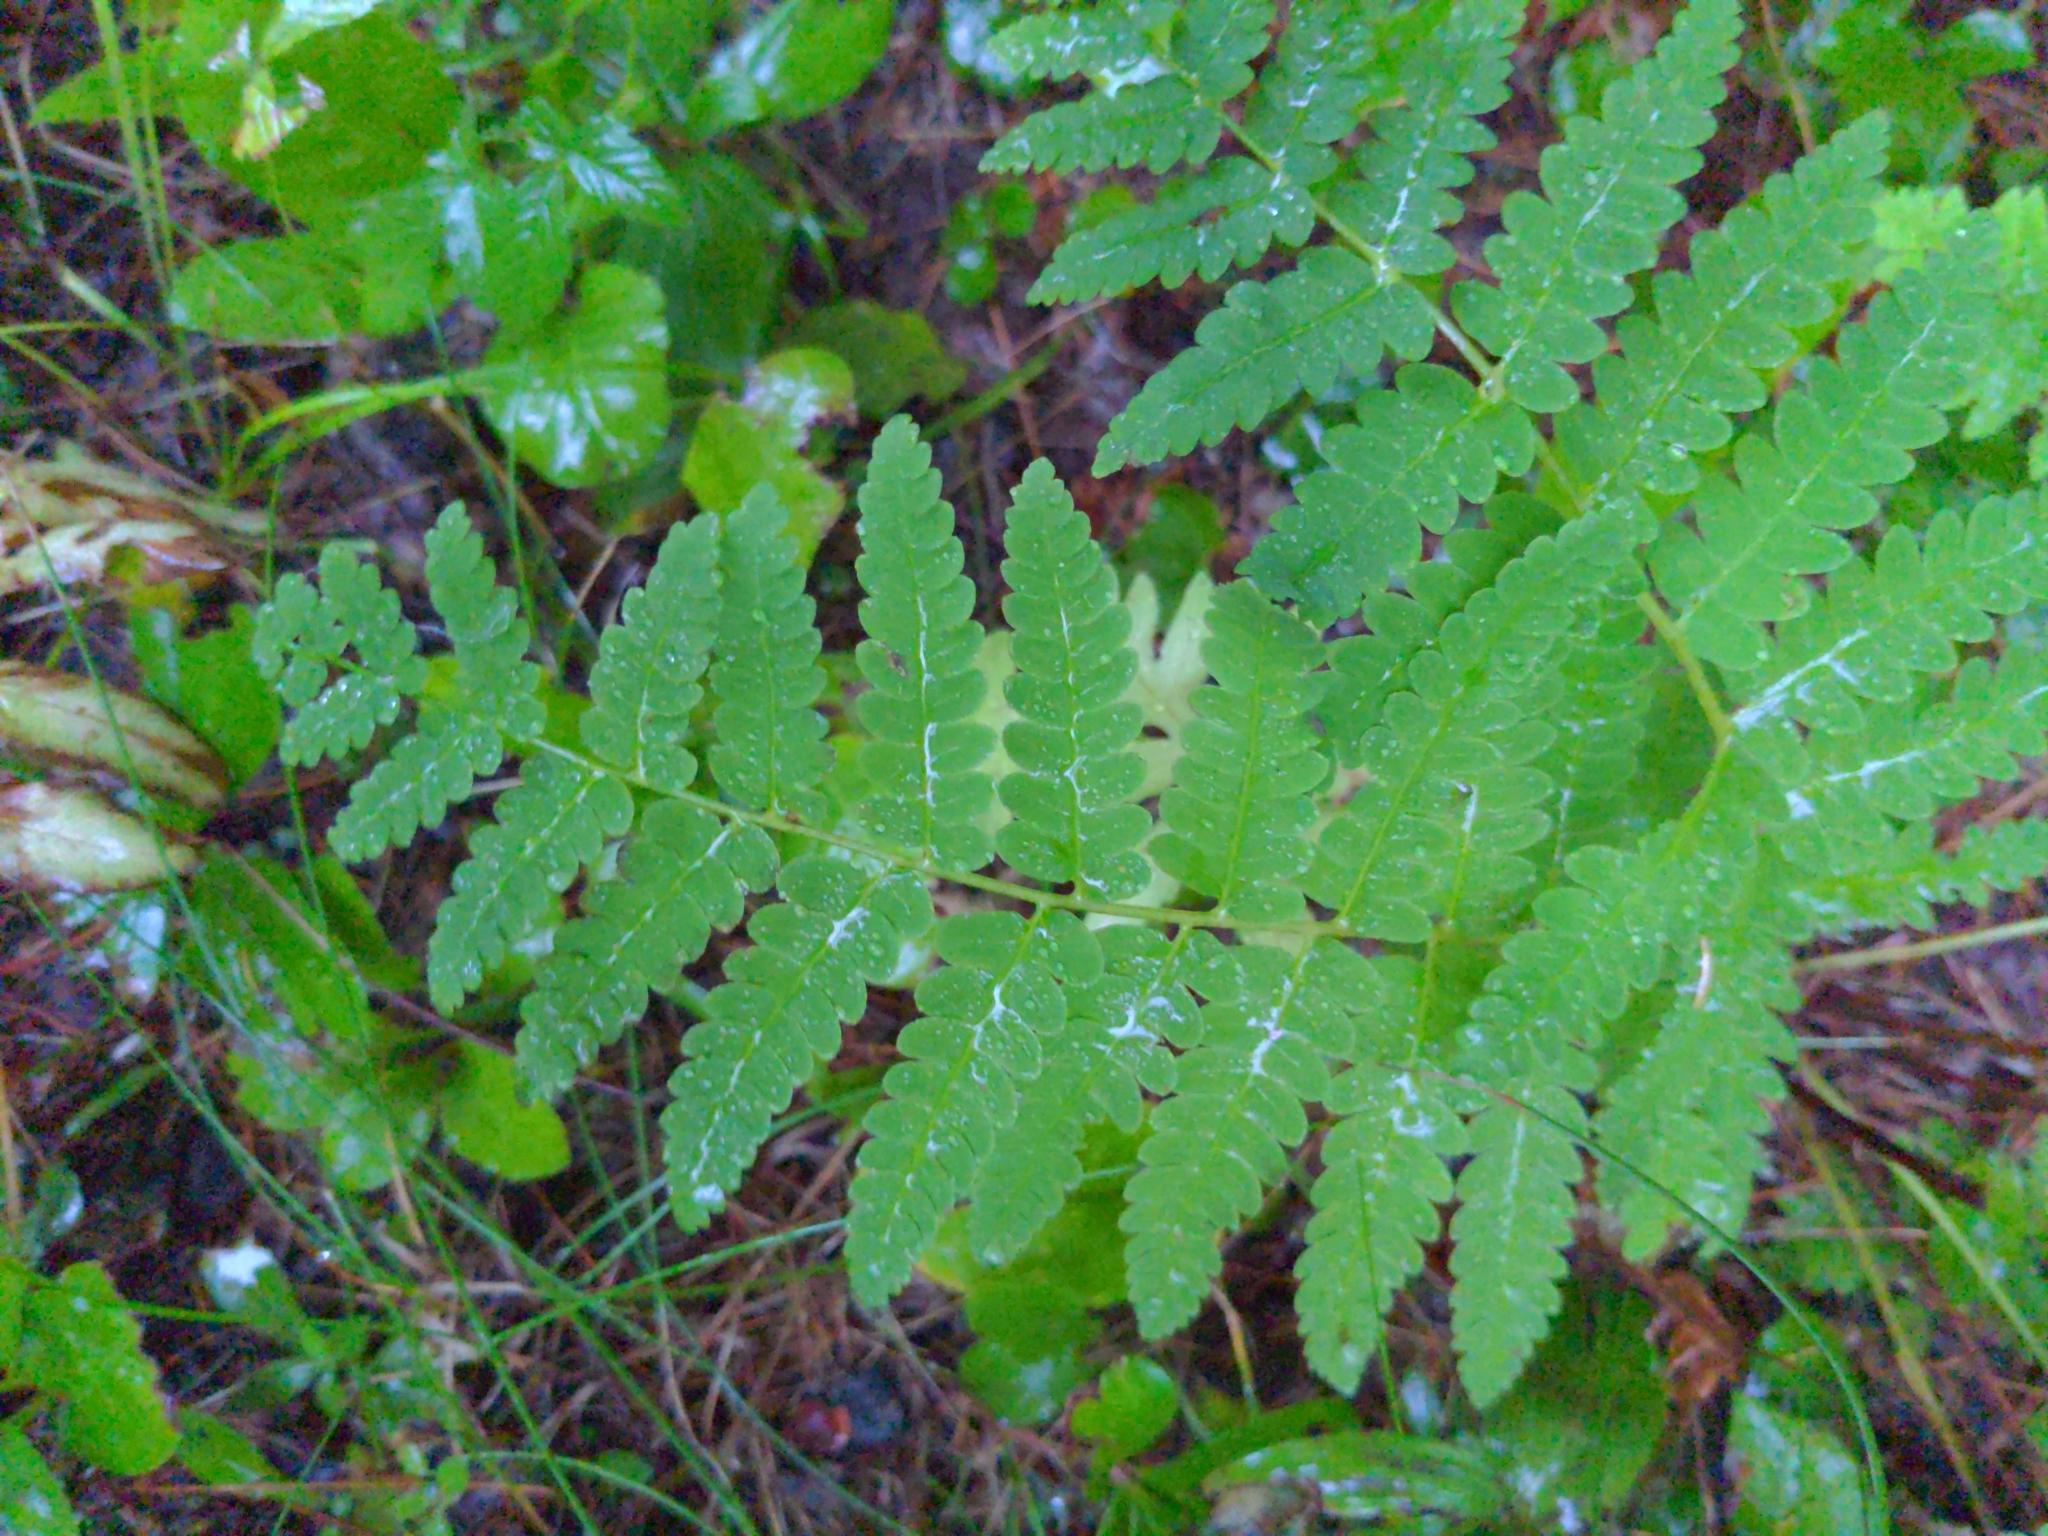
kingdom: Plantae
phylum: Tracheophyta
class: Polypodiopsida
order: Osmundales
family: Osmundaceae
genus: Claytosmunda
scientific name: Claytosmunda claytoniana
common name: Clayton's fern
